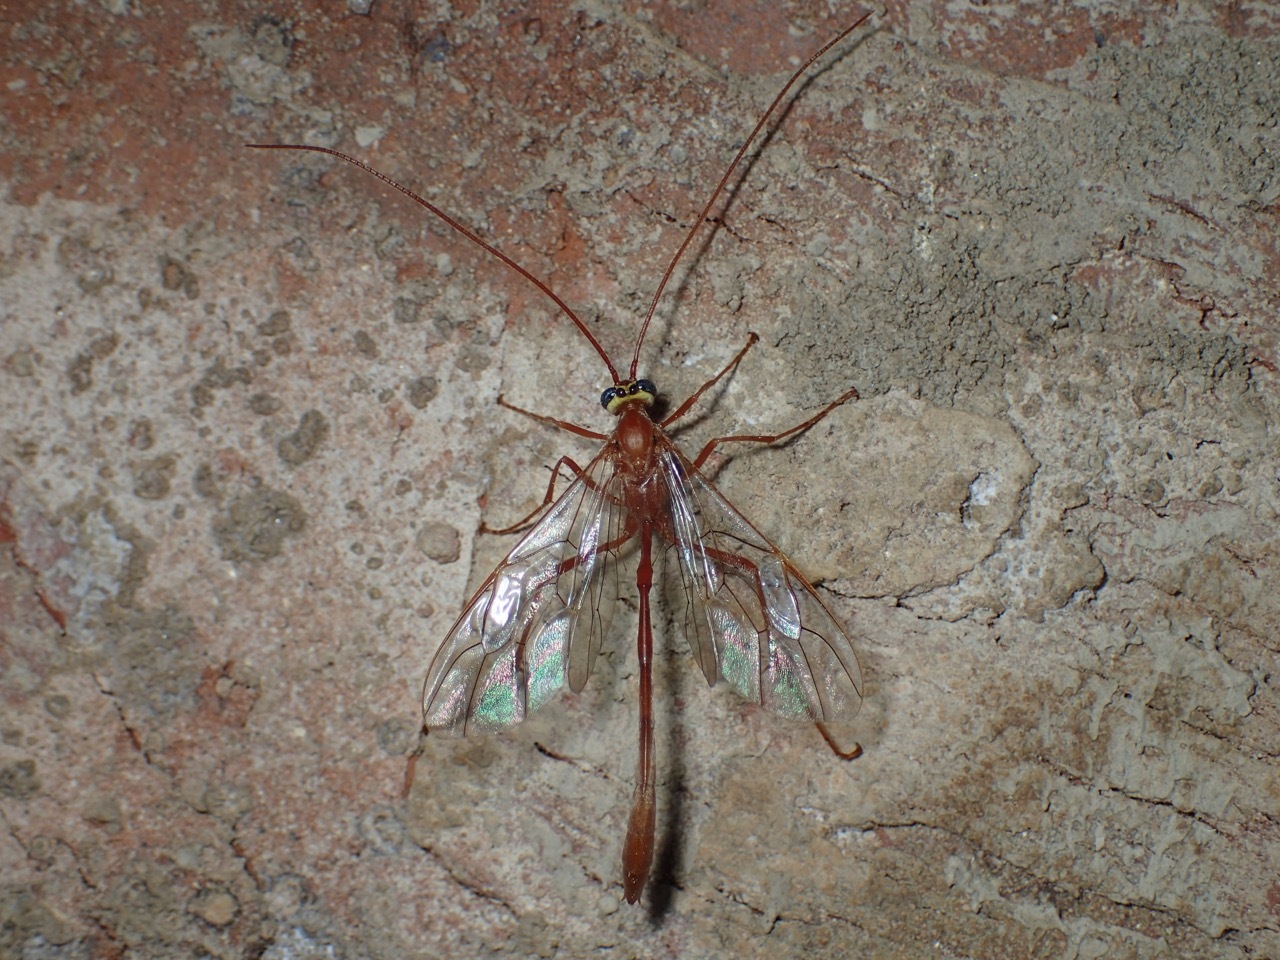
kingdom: Animalia
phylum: Arthropoda
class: Insecta
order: Hymenoptera
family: Ichneumonidae
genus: Enicospilus
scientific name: Enicospilus
